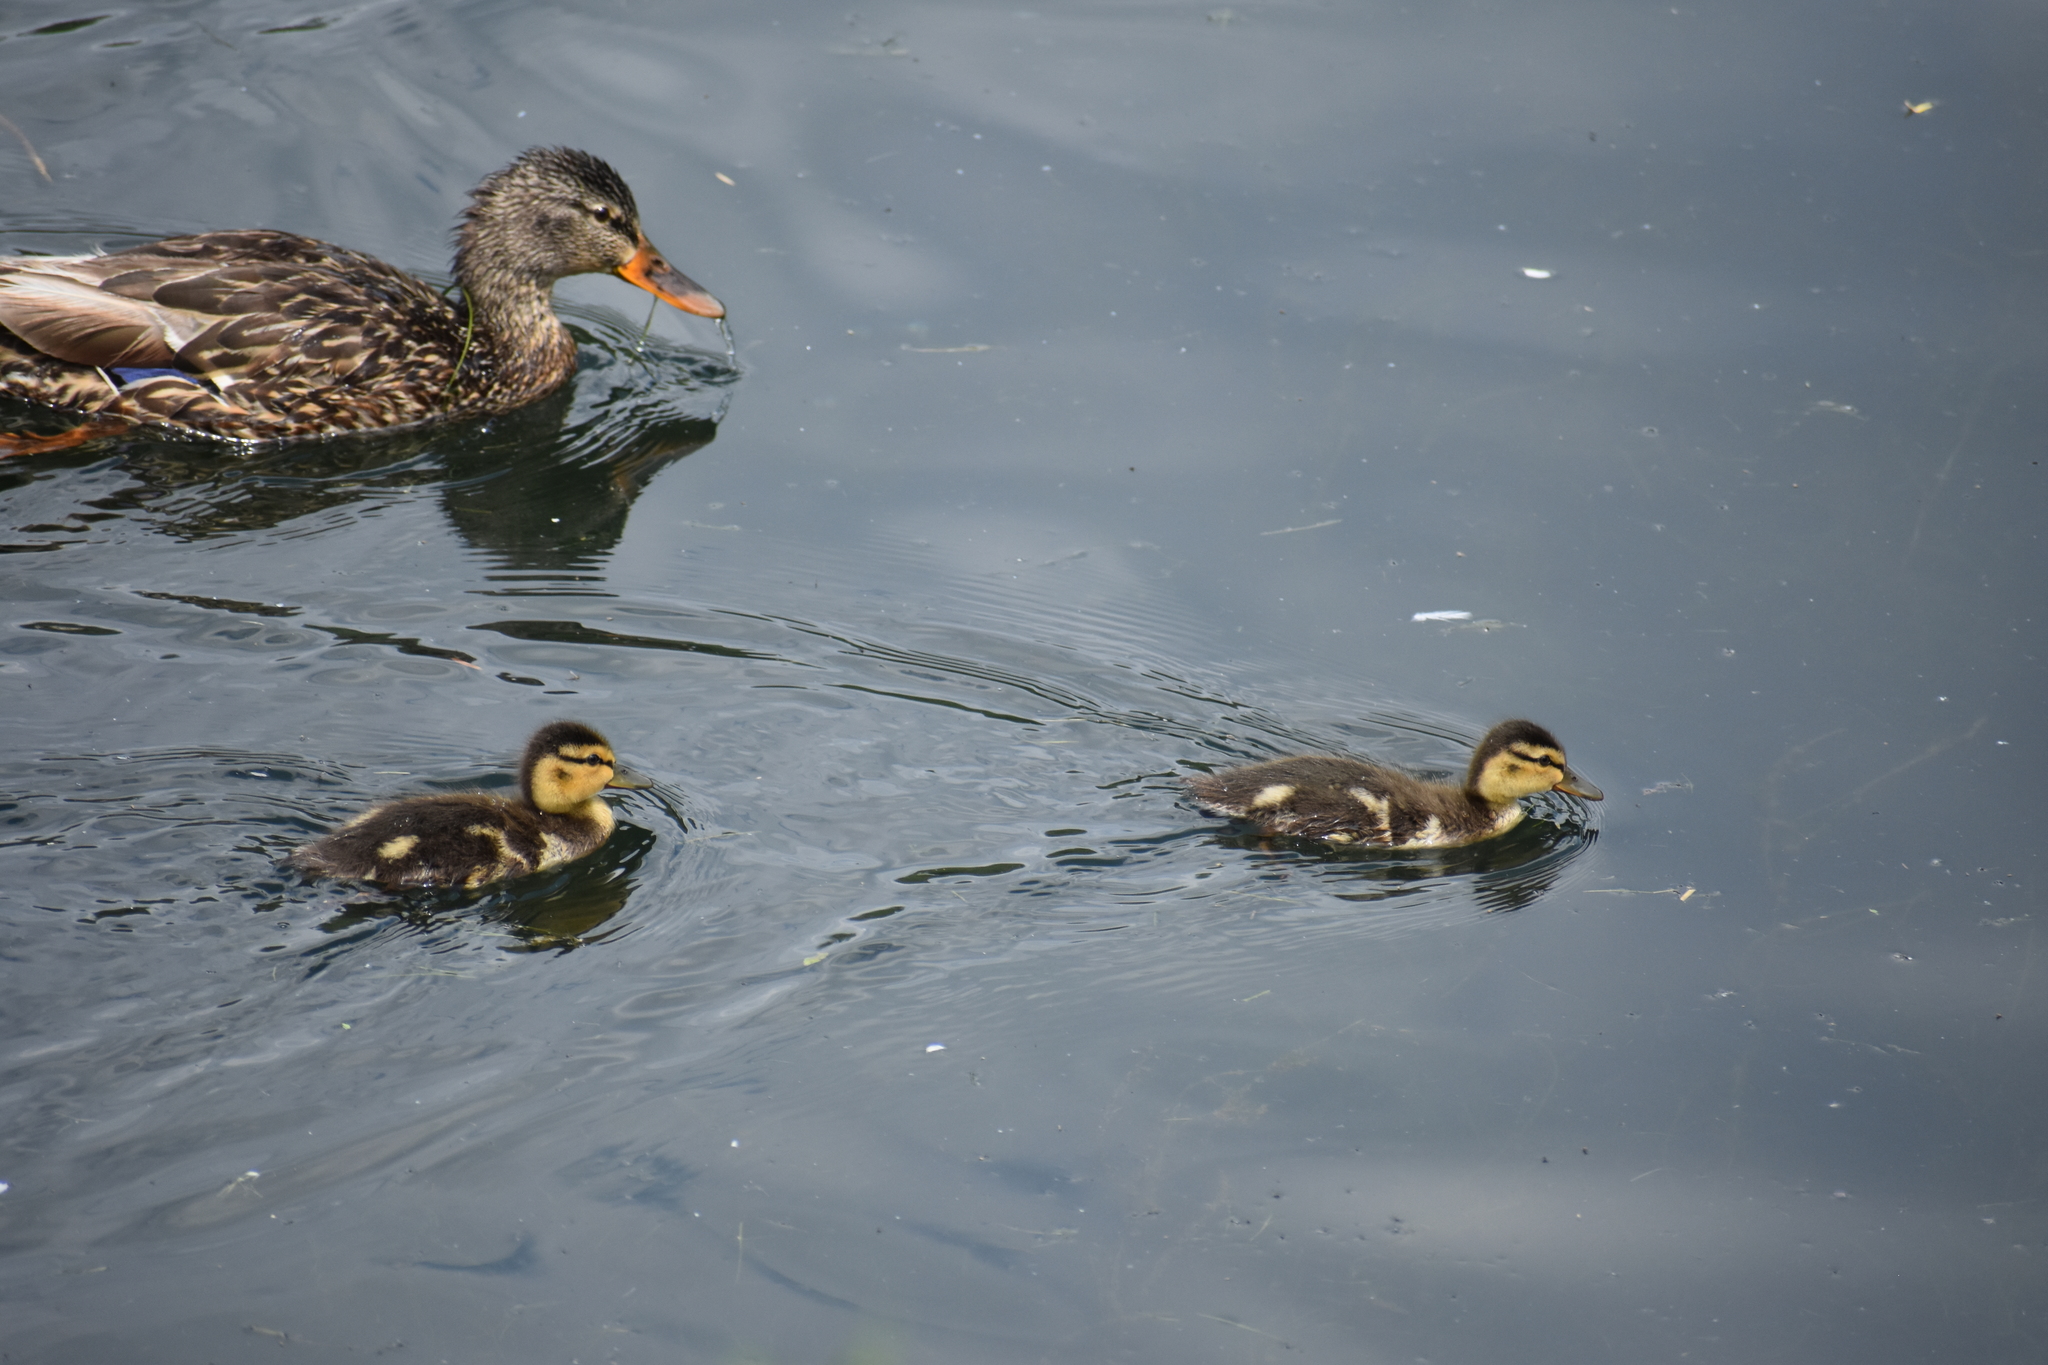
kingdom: Animalia
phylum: Chordata
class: Aves
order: Anseriformes
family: Anatidae
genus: Anas
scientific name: Anas platyrhynchos
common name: Mallard
